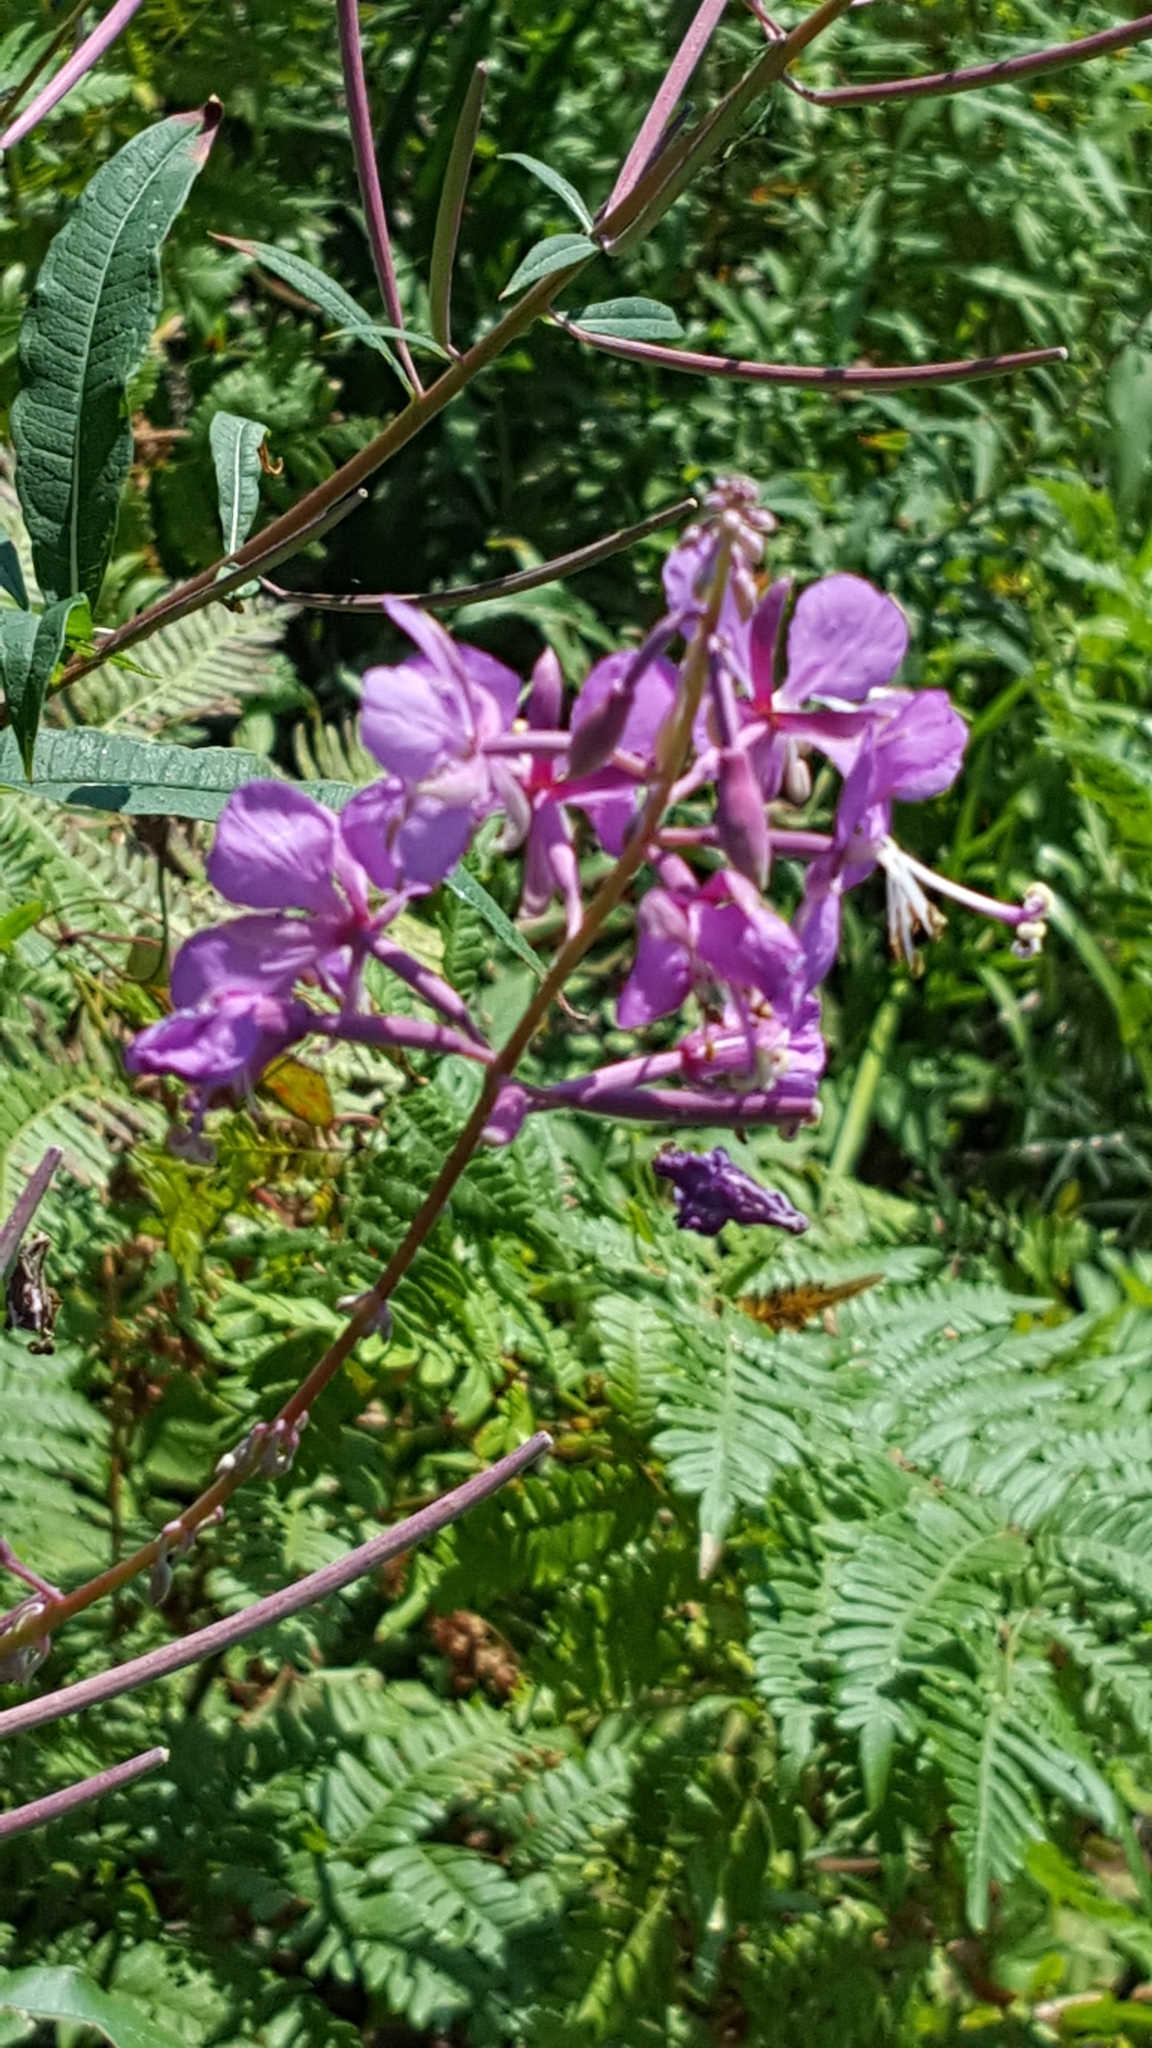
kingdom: Plantae
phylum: Tracheophyta
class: Magnoliopsida
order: Myrtales
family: Onagraceae
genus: Chamaenerion
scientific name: Chamaenerion angustifolium
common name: Fireweed
